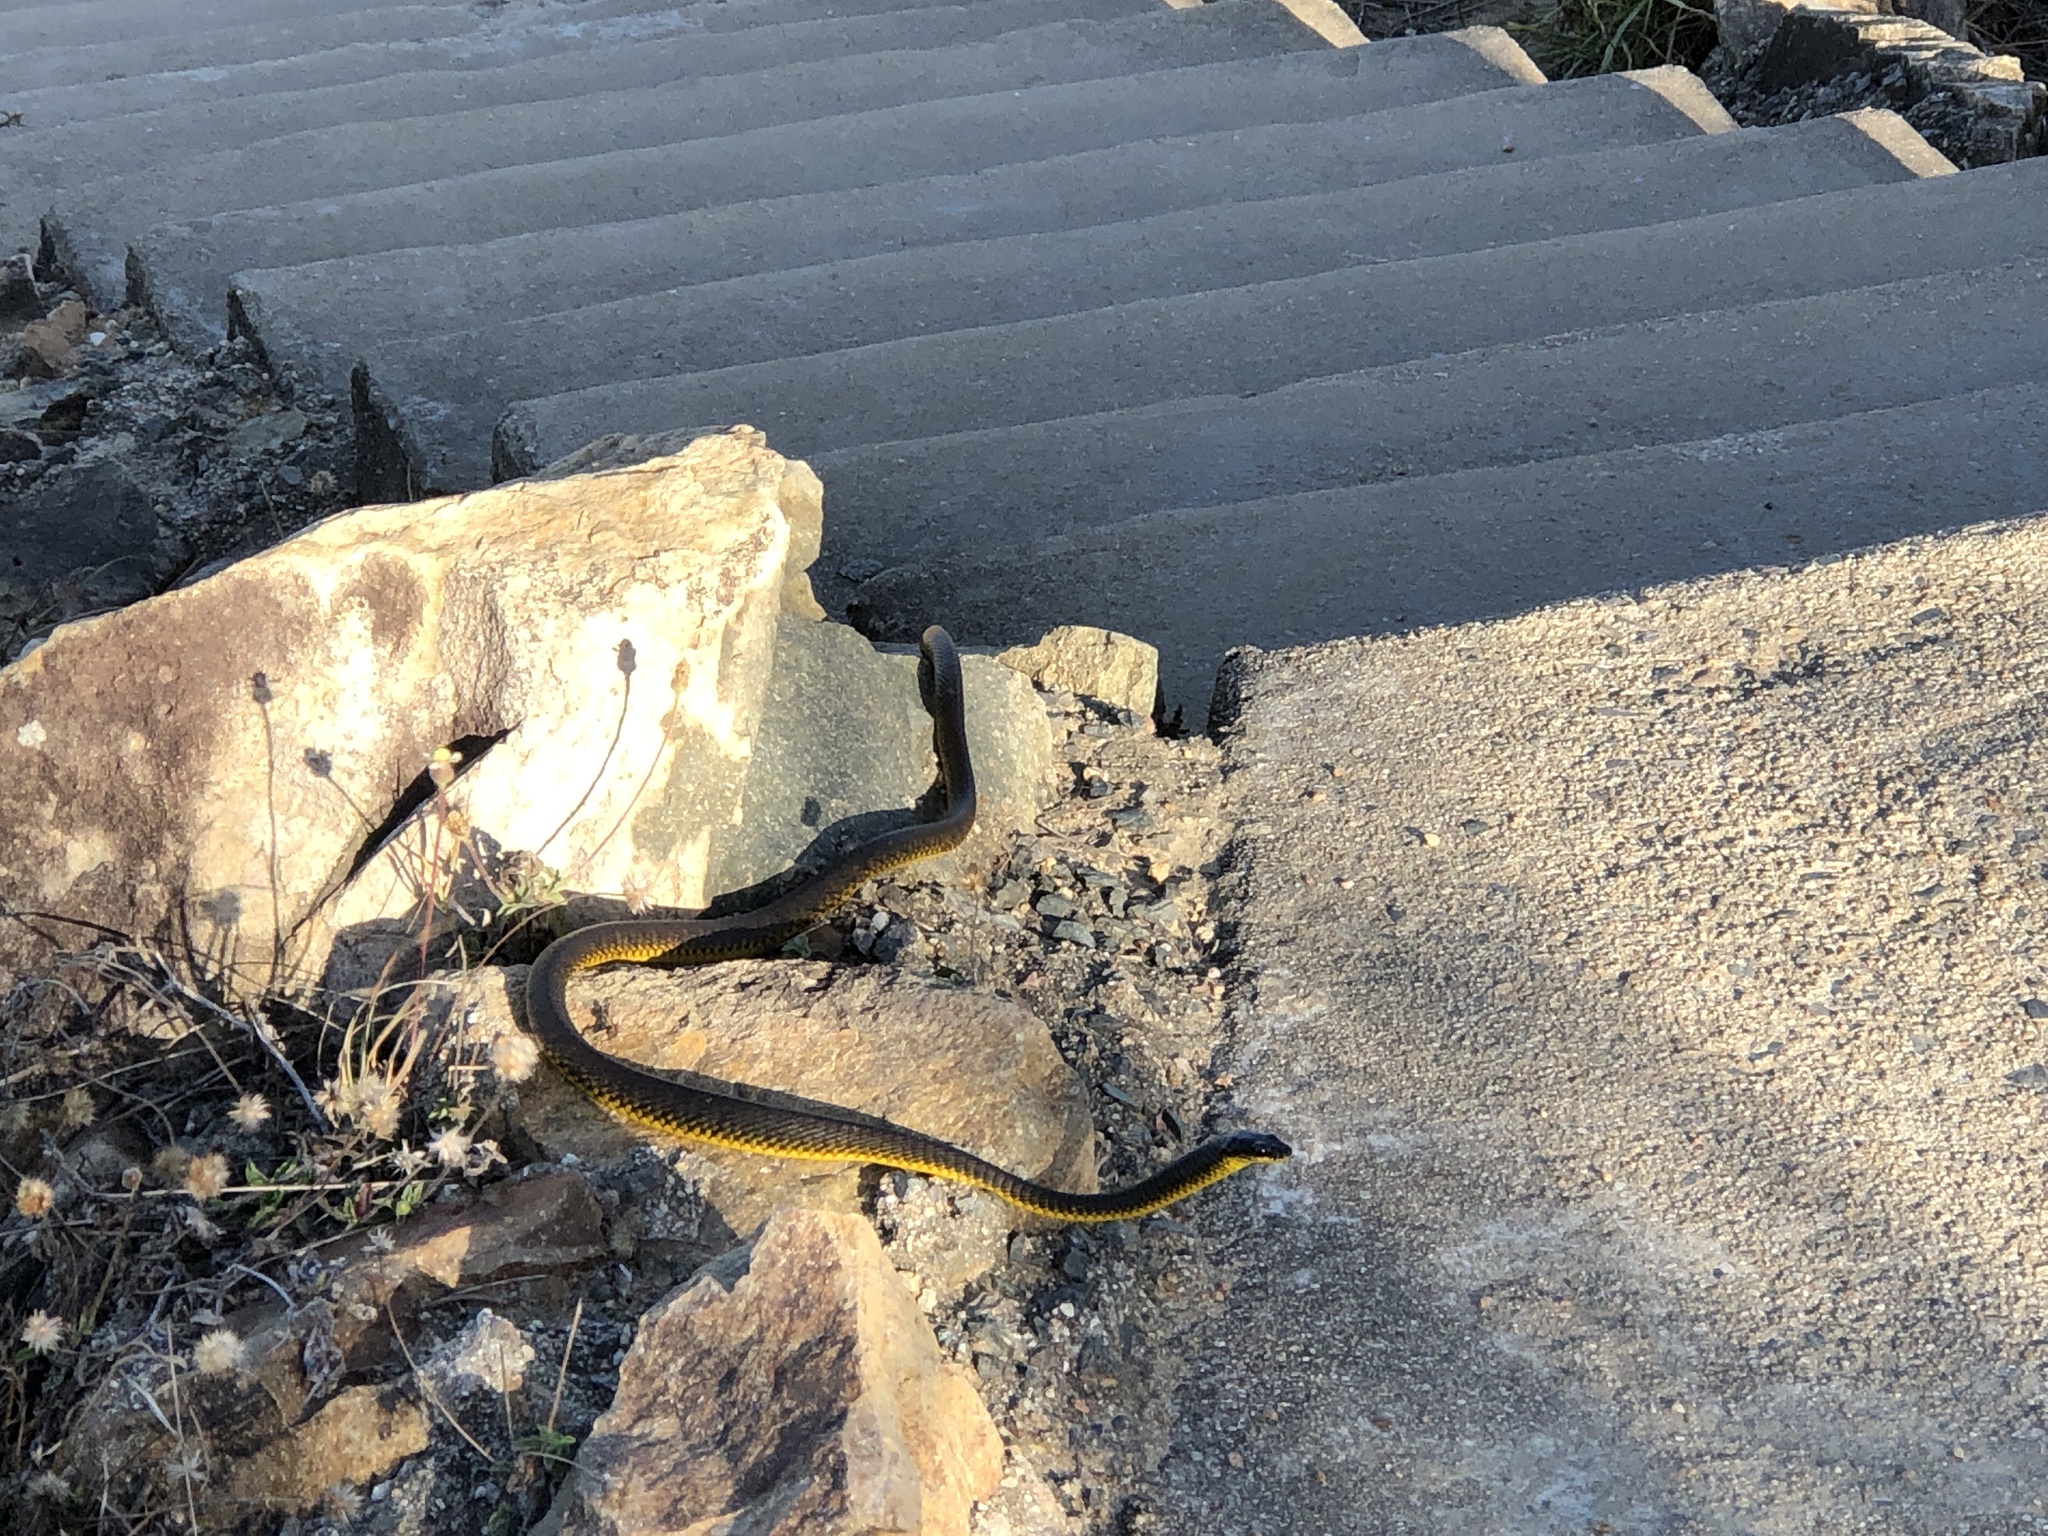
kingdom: Animalia
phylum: Chordata
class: Squamata
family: Colubridae
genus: Dendrelaphis
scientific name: Dendrelaphis punctulatus
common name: Common tree snake
